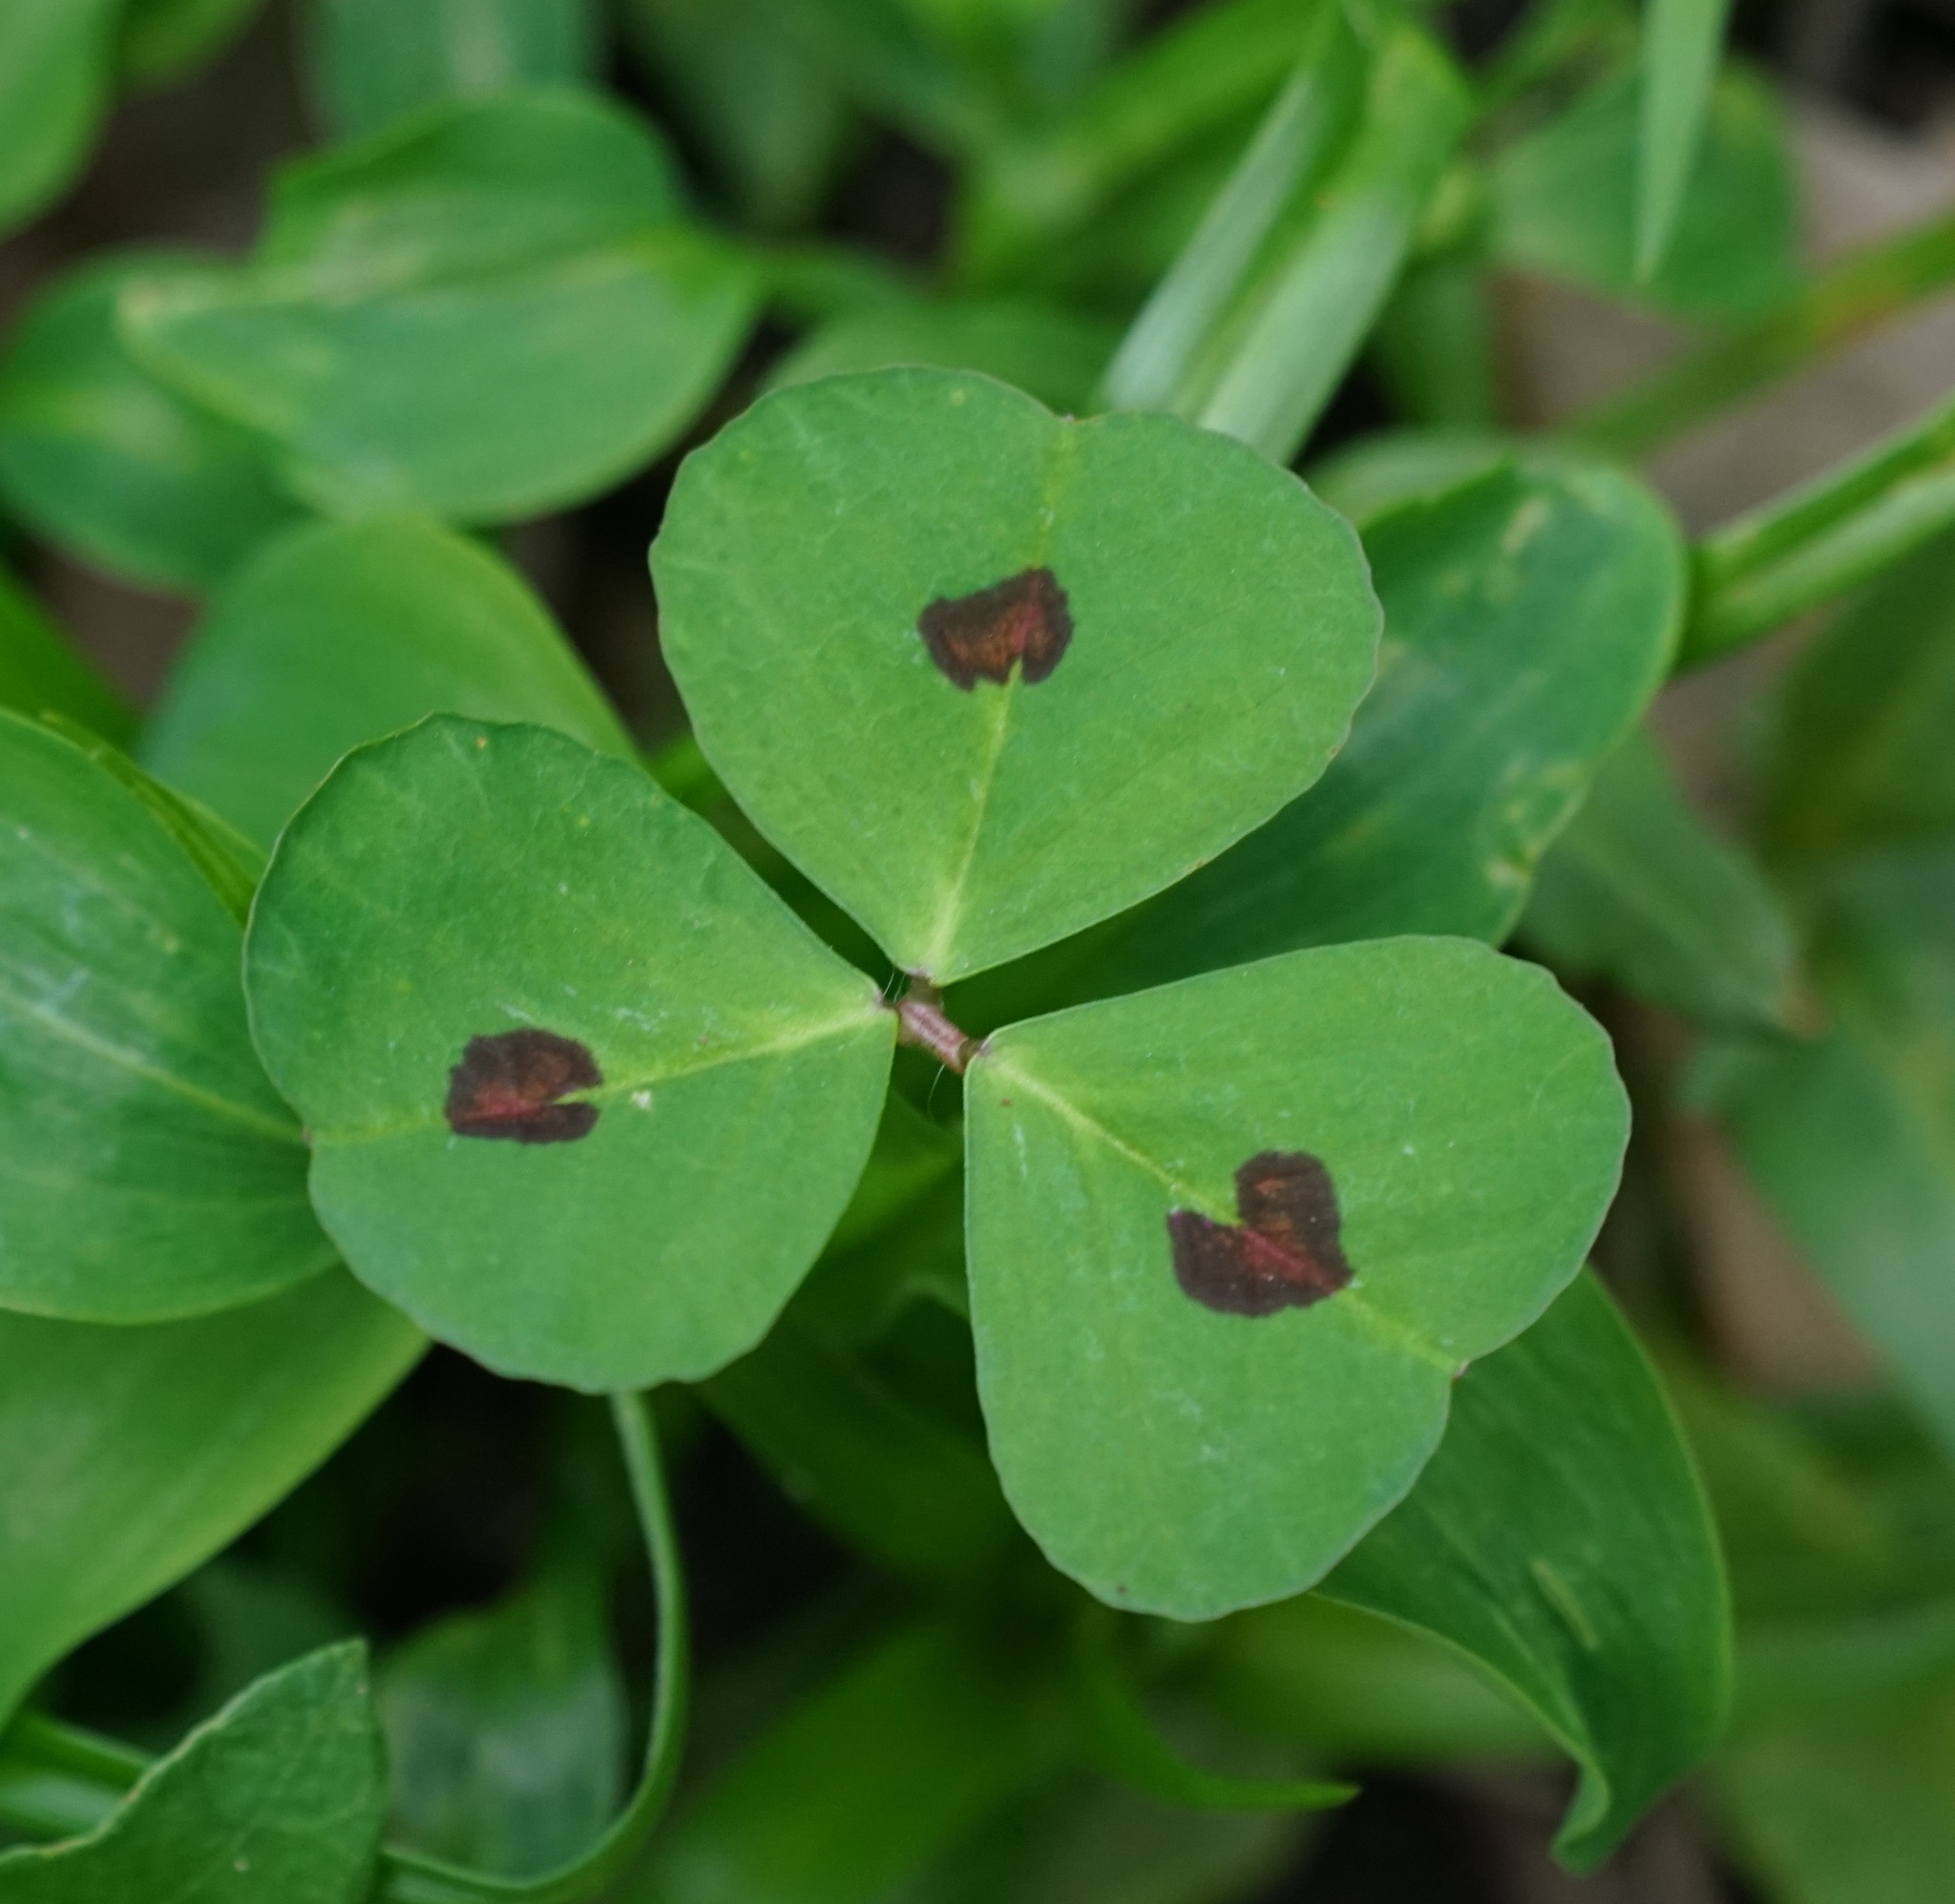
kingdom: Plantae
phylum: Tracheophyta
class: Magnoliopsida
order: Fabales
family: Fabaceae
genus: Medicago
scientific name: Medicago arabica
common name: Spotted medick
